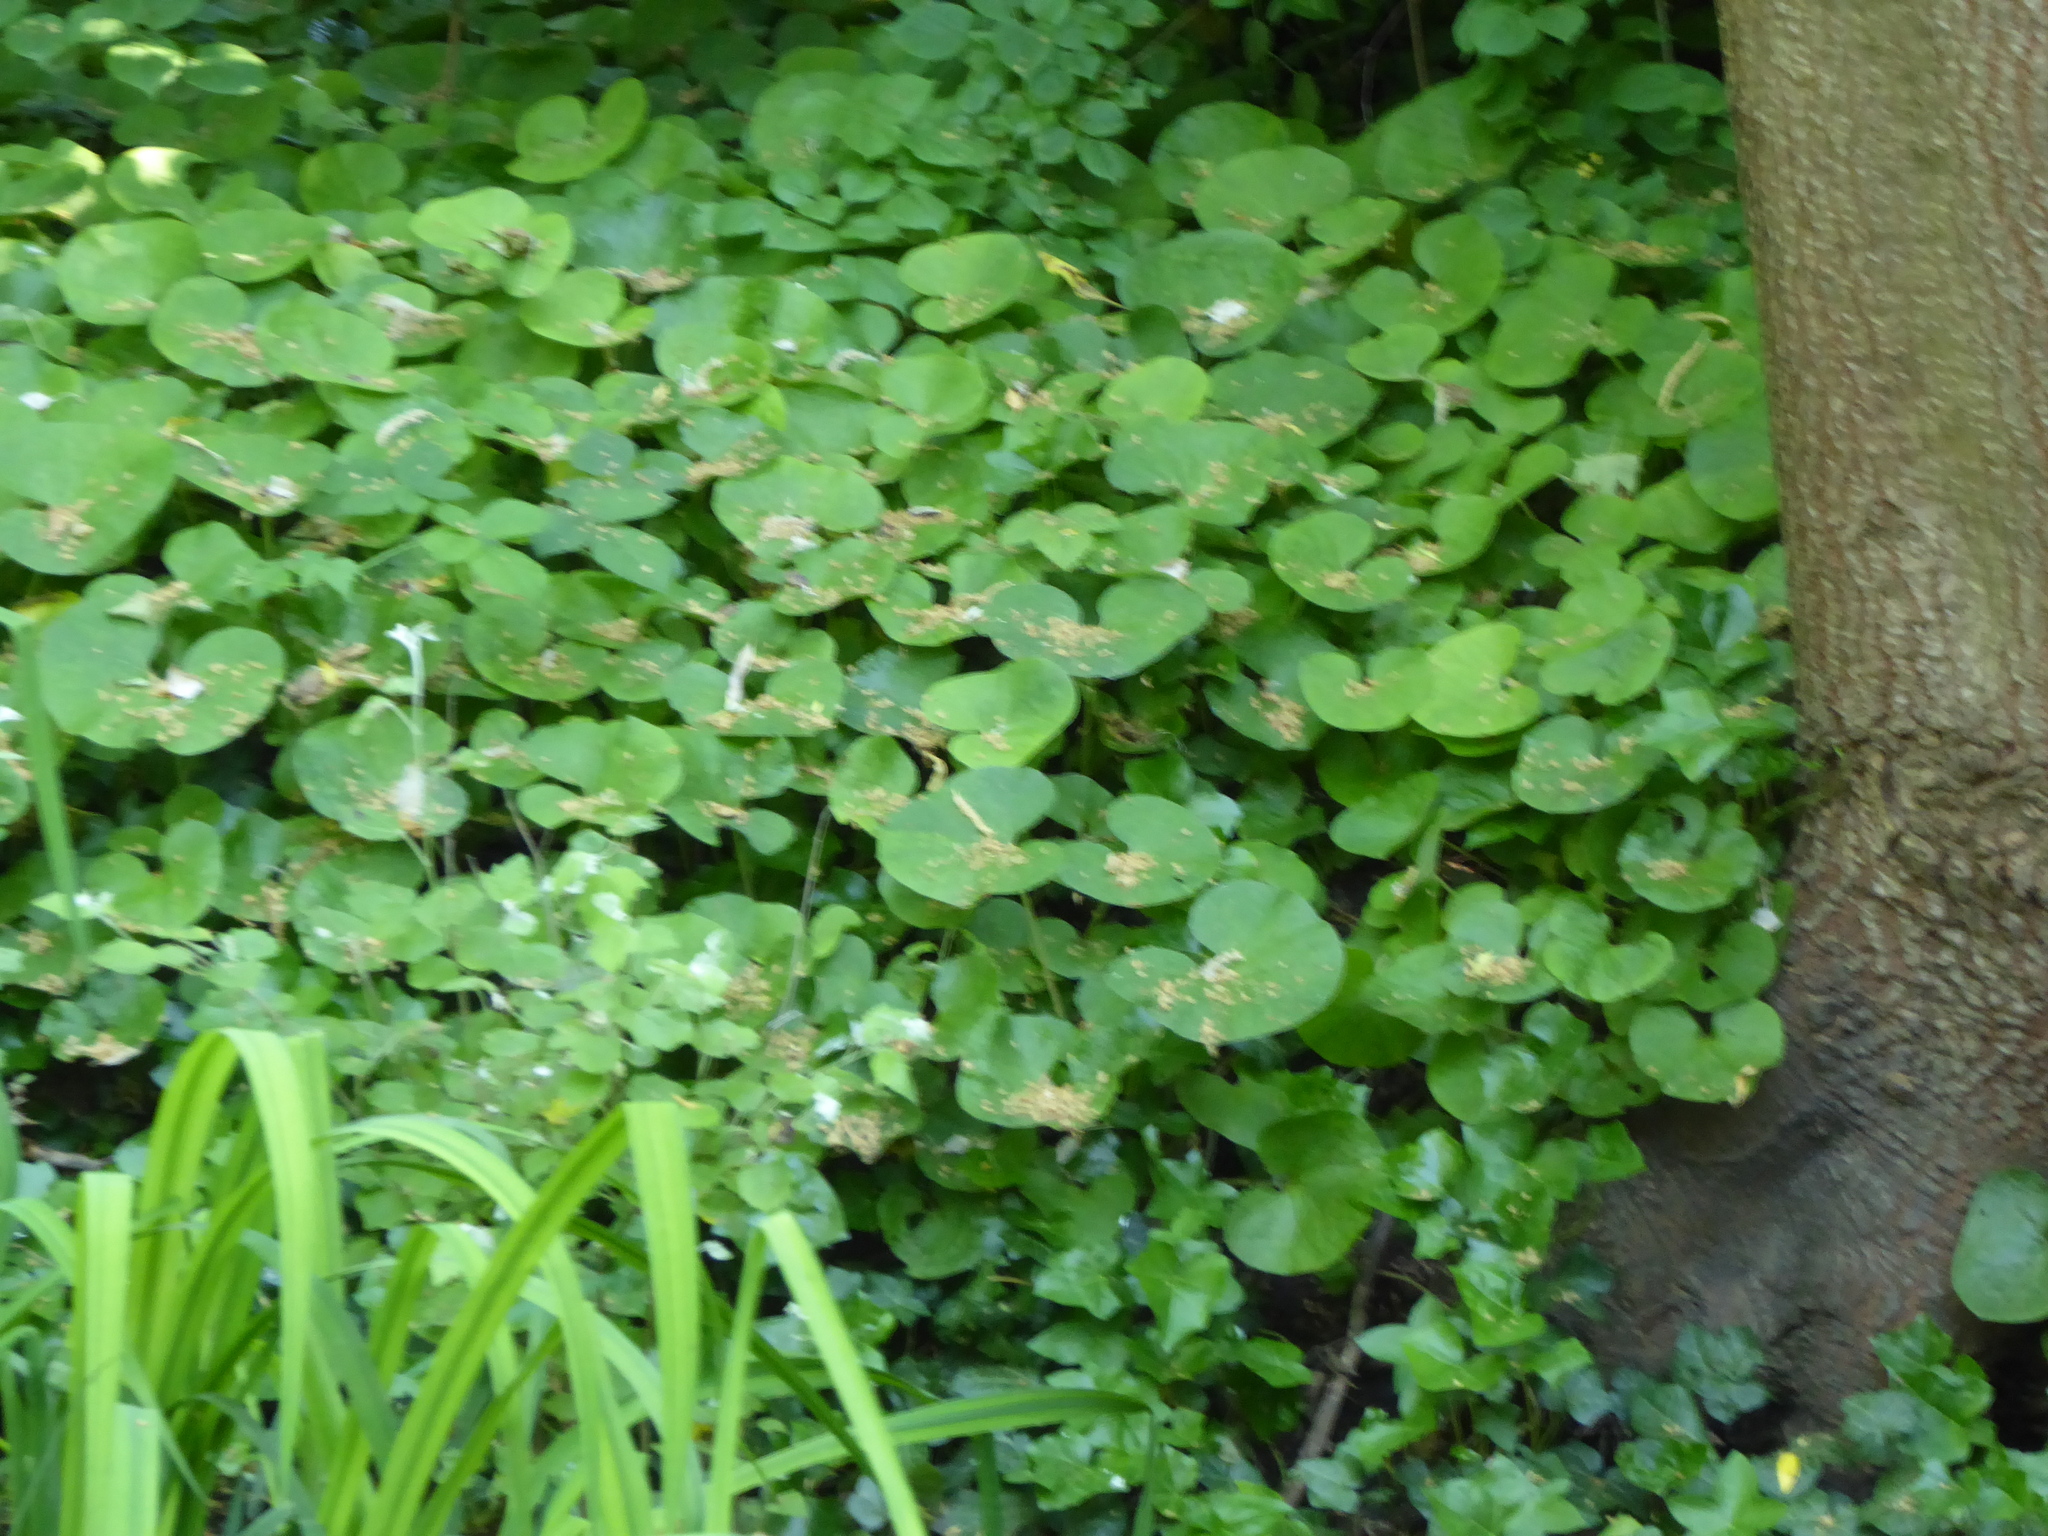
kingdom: Plantae
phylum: Tracheophyta
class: Magnoliopsida
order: Asterales
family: Asteraceae
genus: Petasites
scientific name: Petasites pyrenaicus
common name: Winter heliotrope
